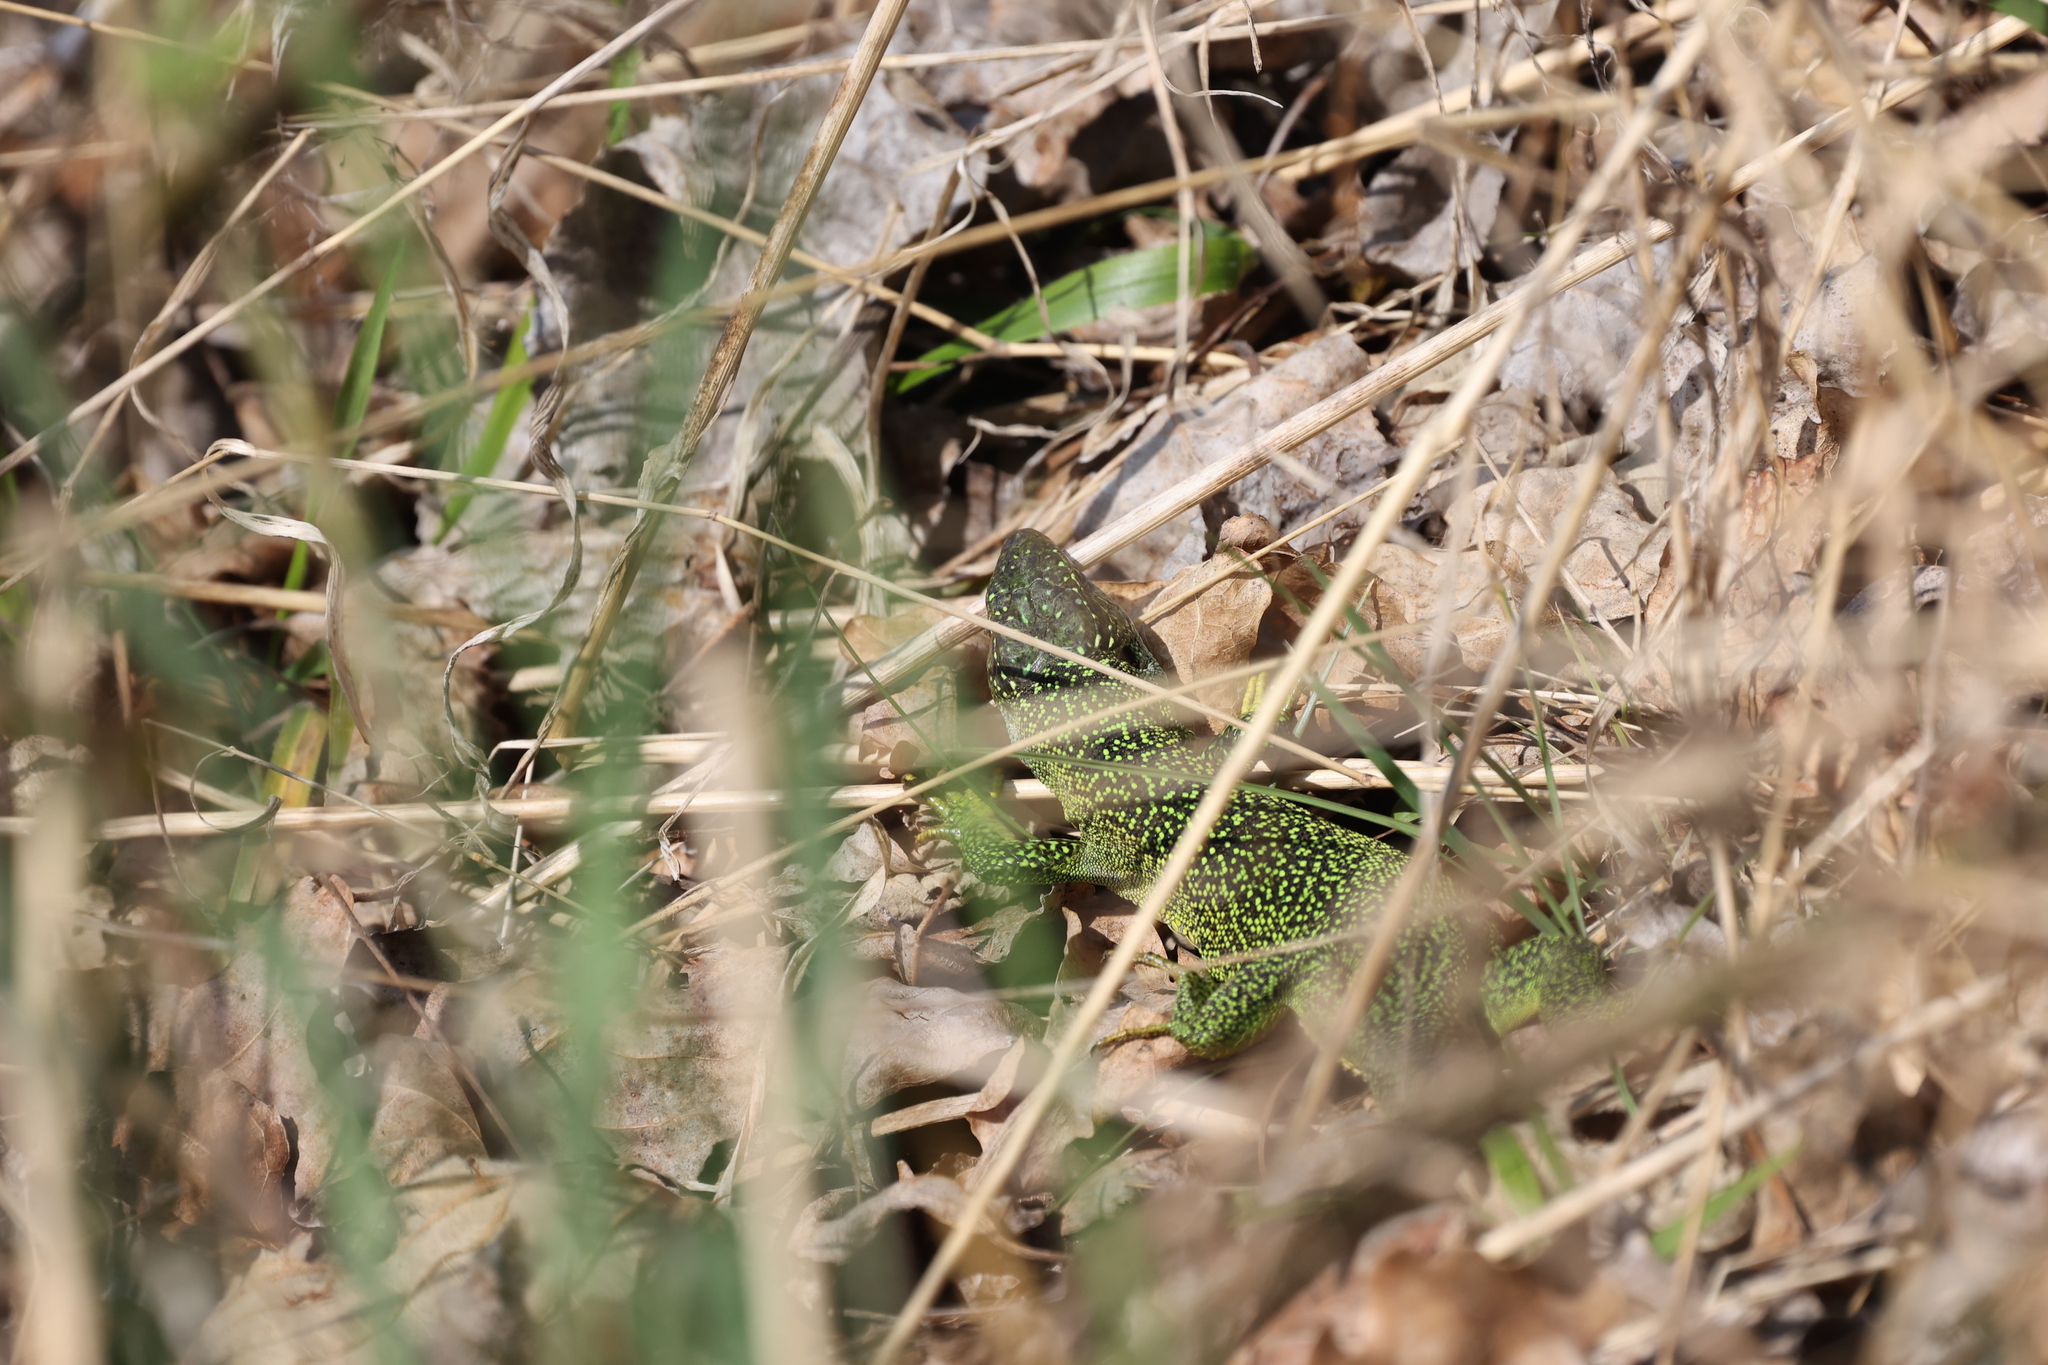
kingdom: Animalia
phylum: Chordata
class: Squamata
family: Lacertidae
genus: Lacerta
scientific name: Lacerta bilineata
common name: Western green lizard
